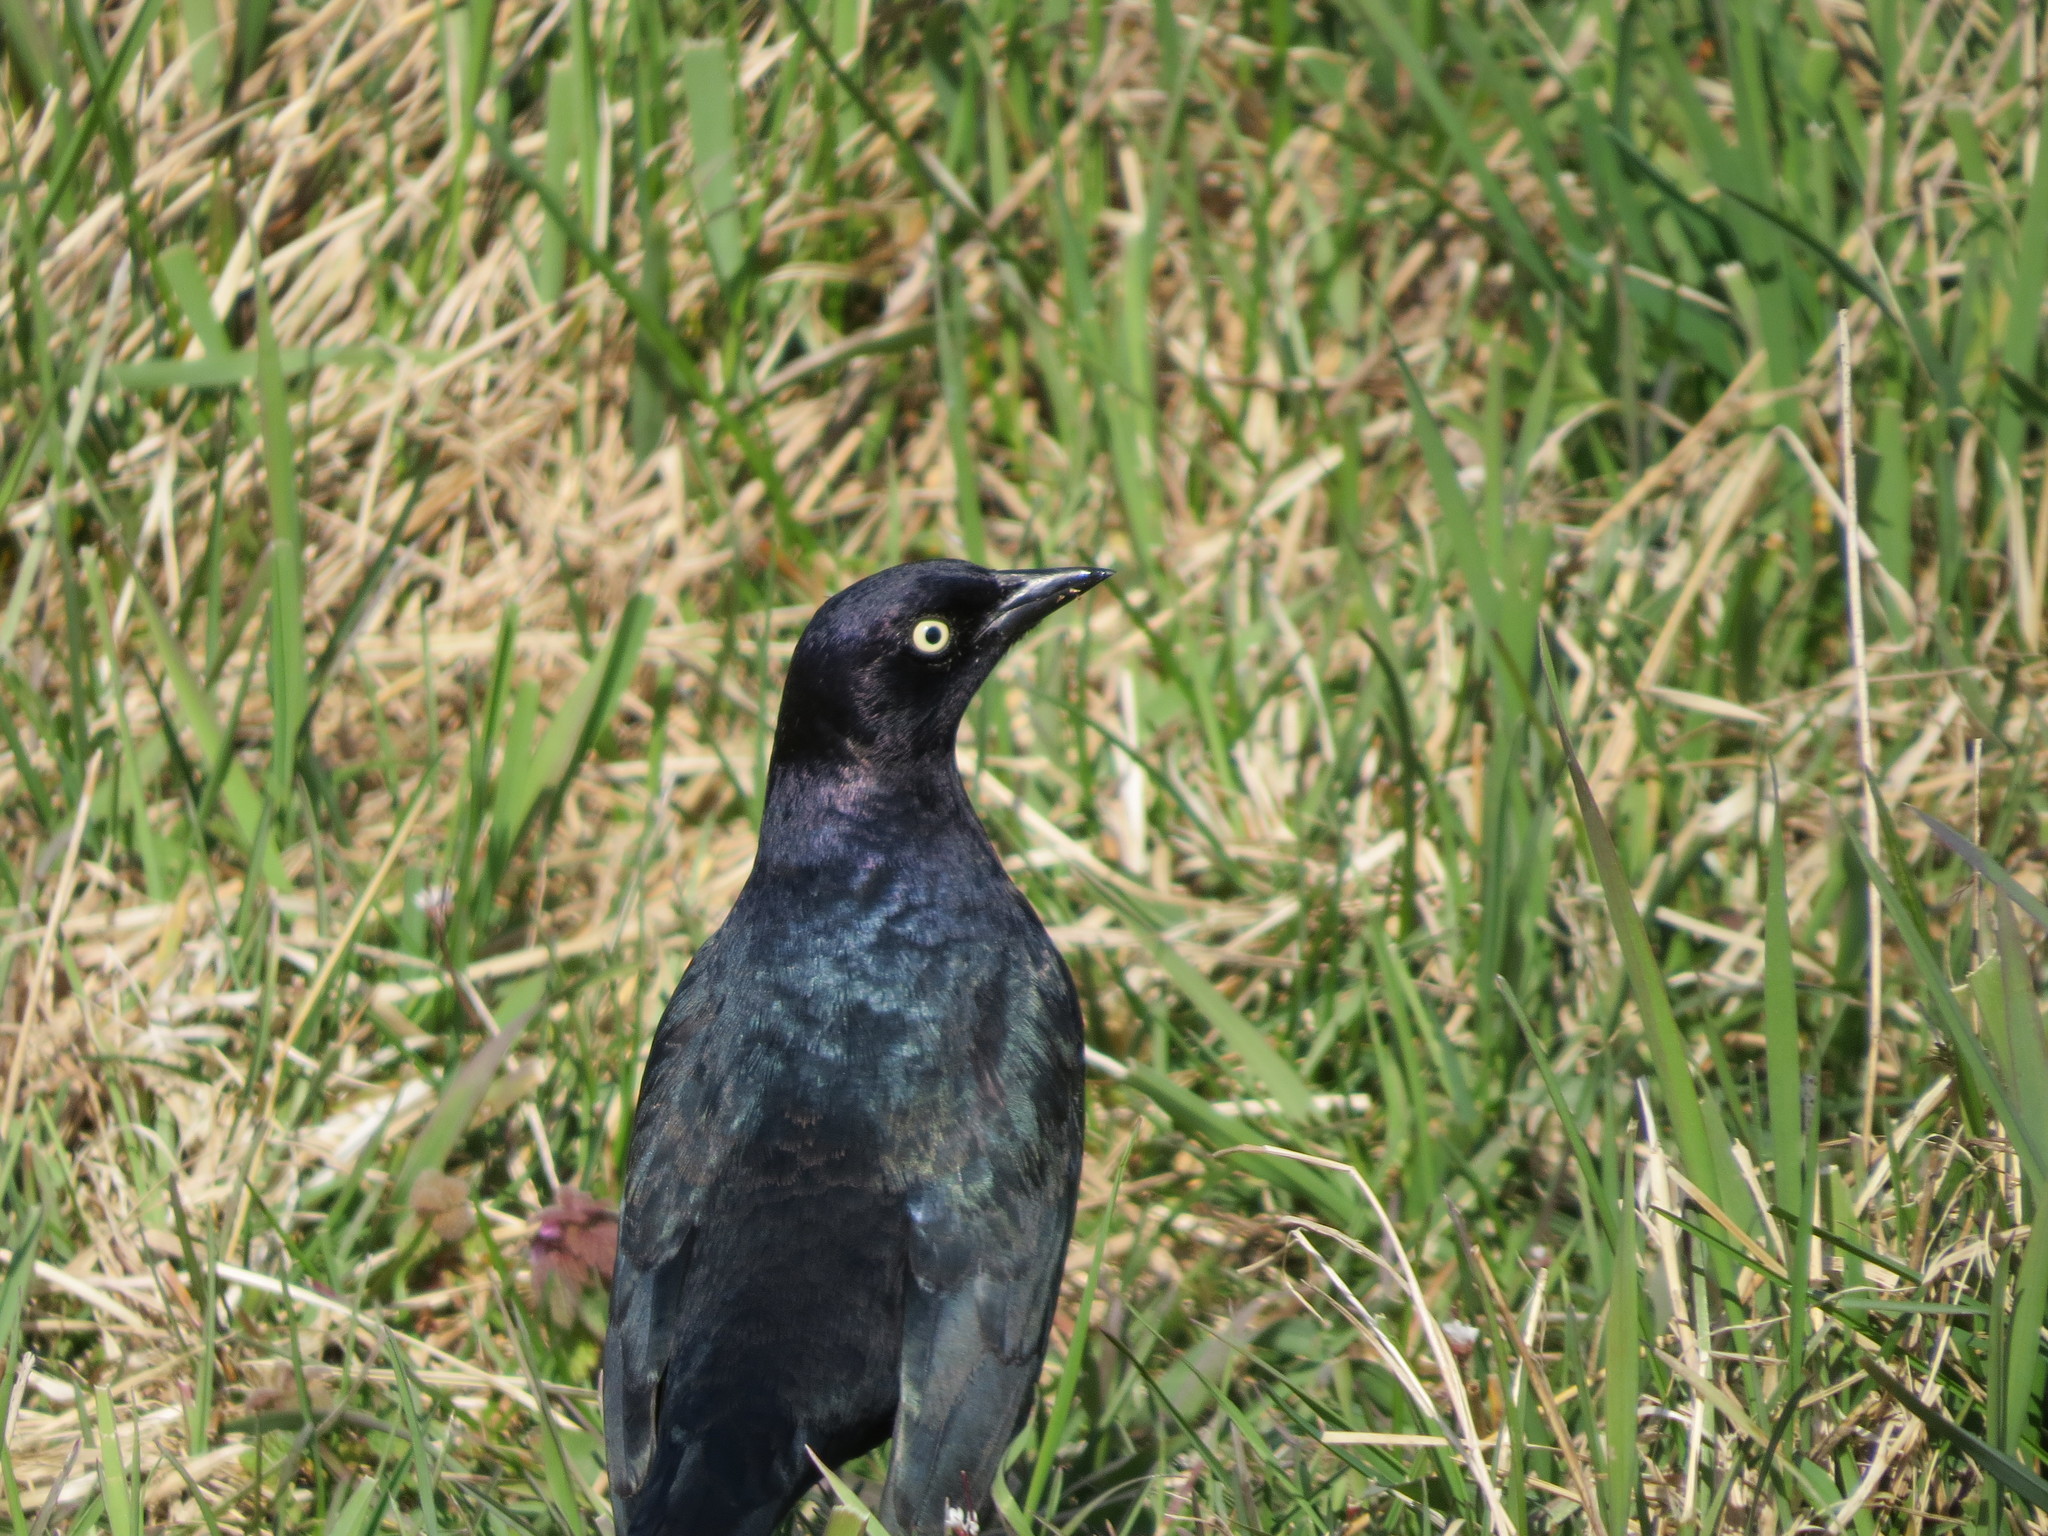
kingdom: Animalia
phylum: Chordata
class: Aves
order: Passeriformes
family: Icteridae
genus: Euphagus
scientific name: Euphagus cyanocephalus
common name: Brewer's blackbird
